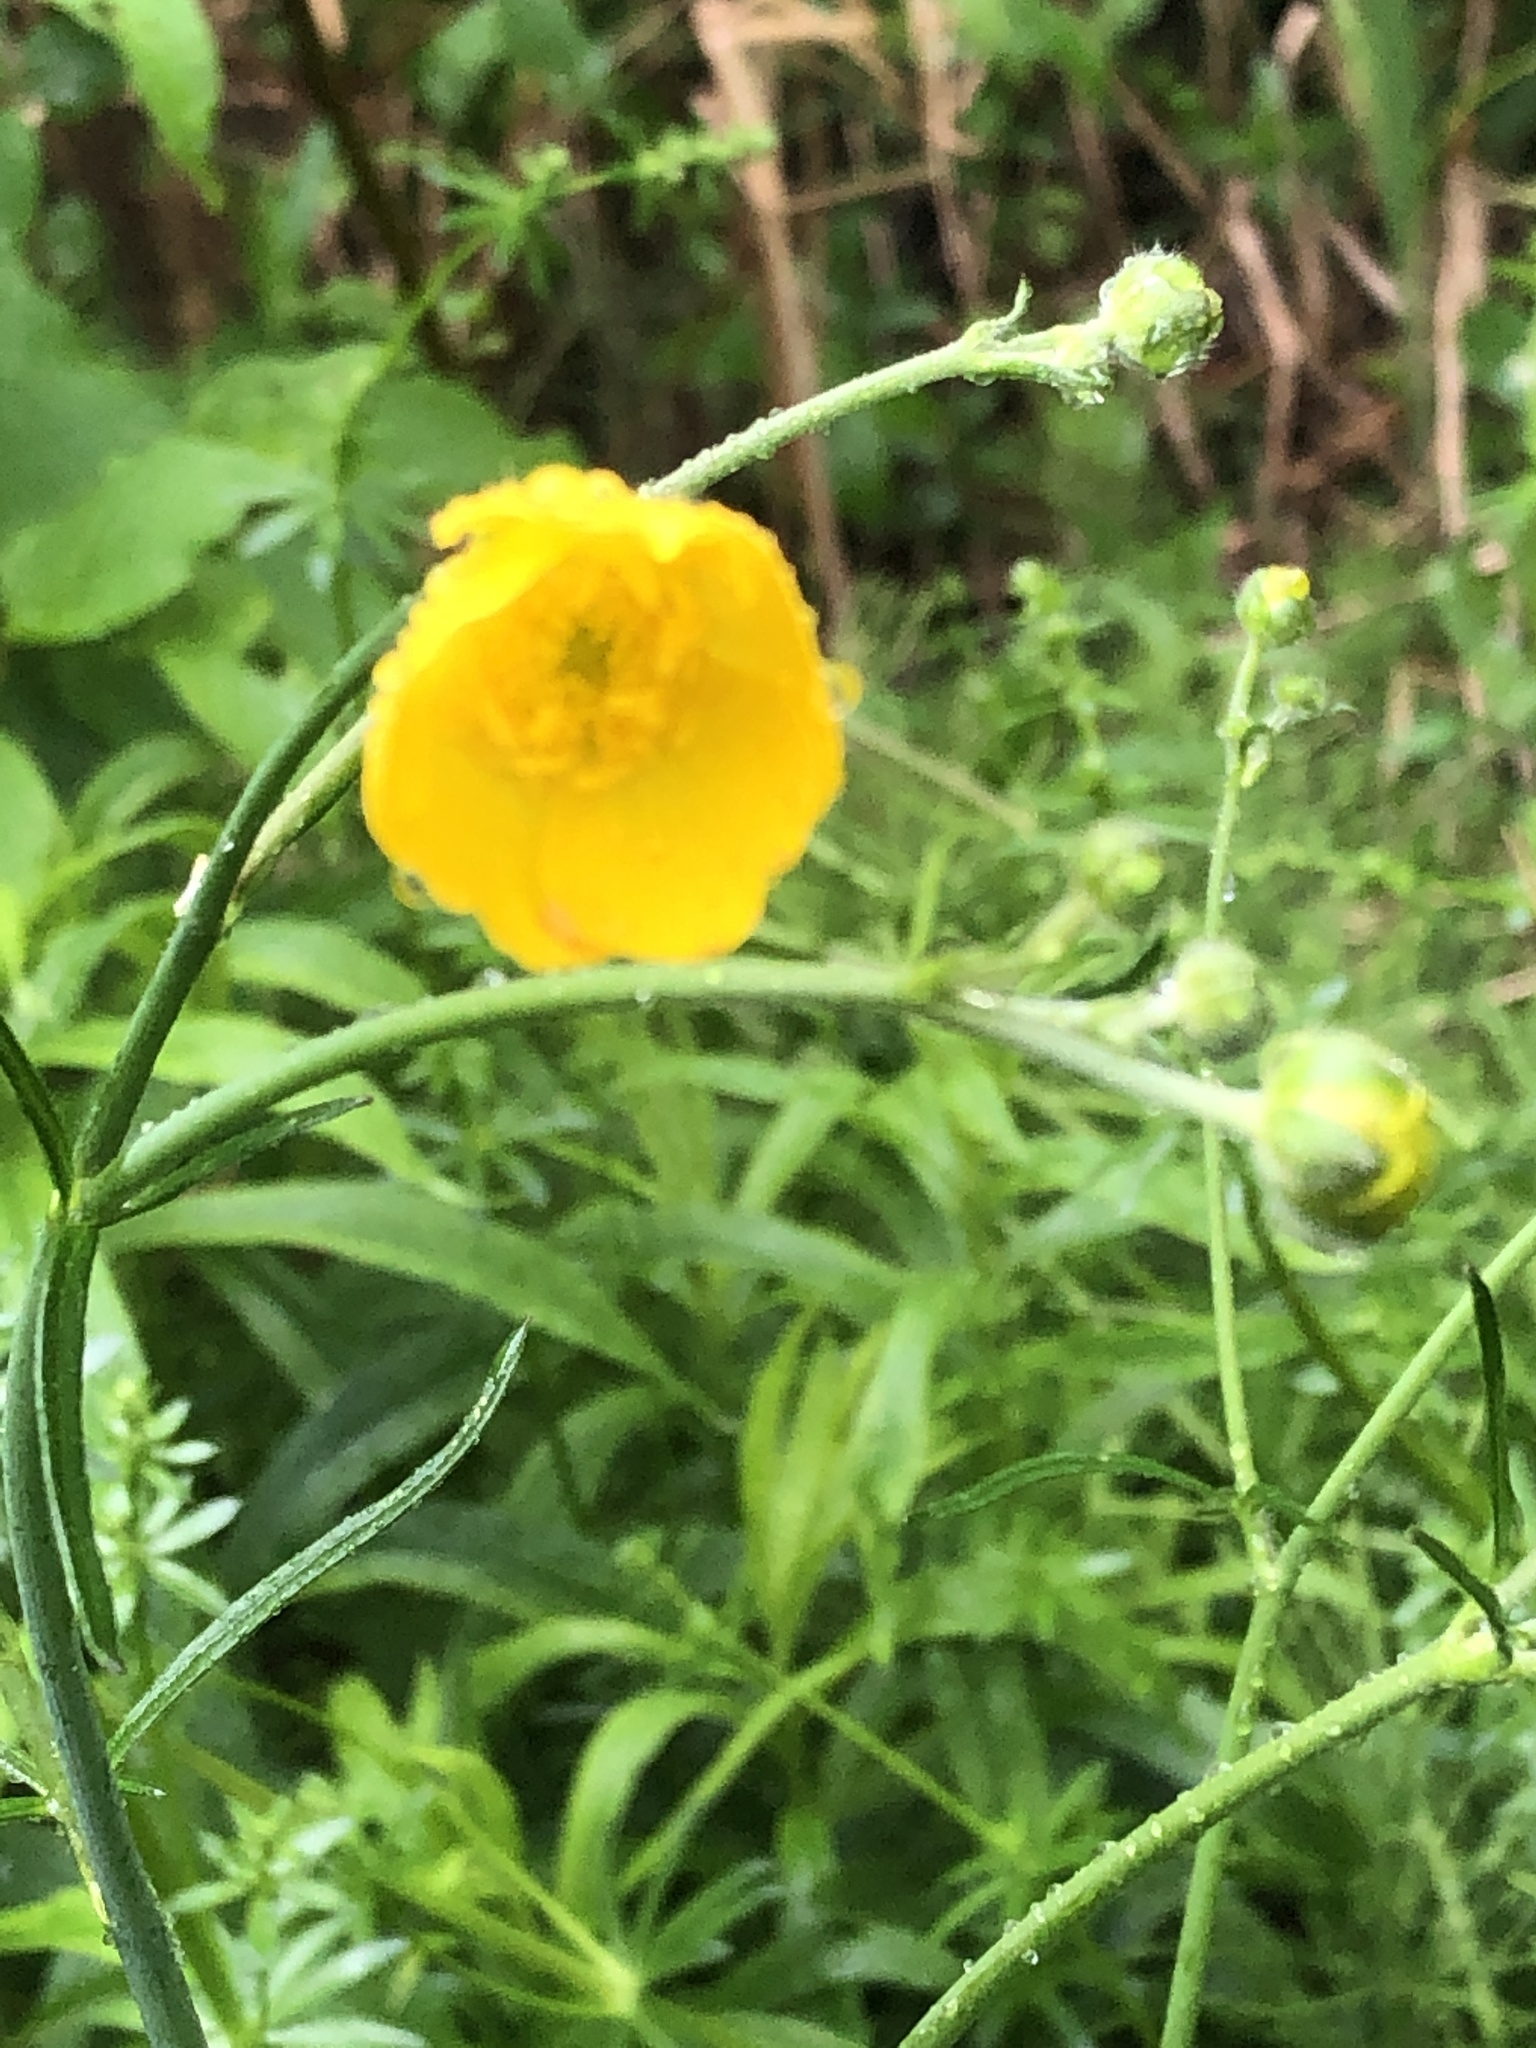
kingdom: Plantae
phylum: Tracheophyta
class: Magnoliopsida
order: Ranunculales
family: Ranunculaceae
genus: Ranunculus
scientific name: Ranunculus acris
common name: Meadow buttercup
